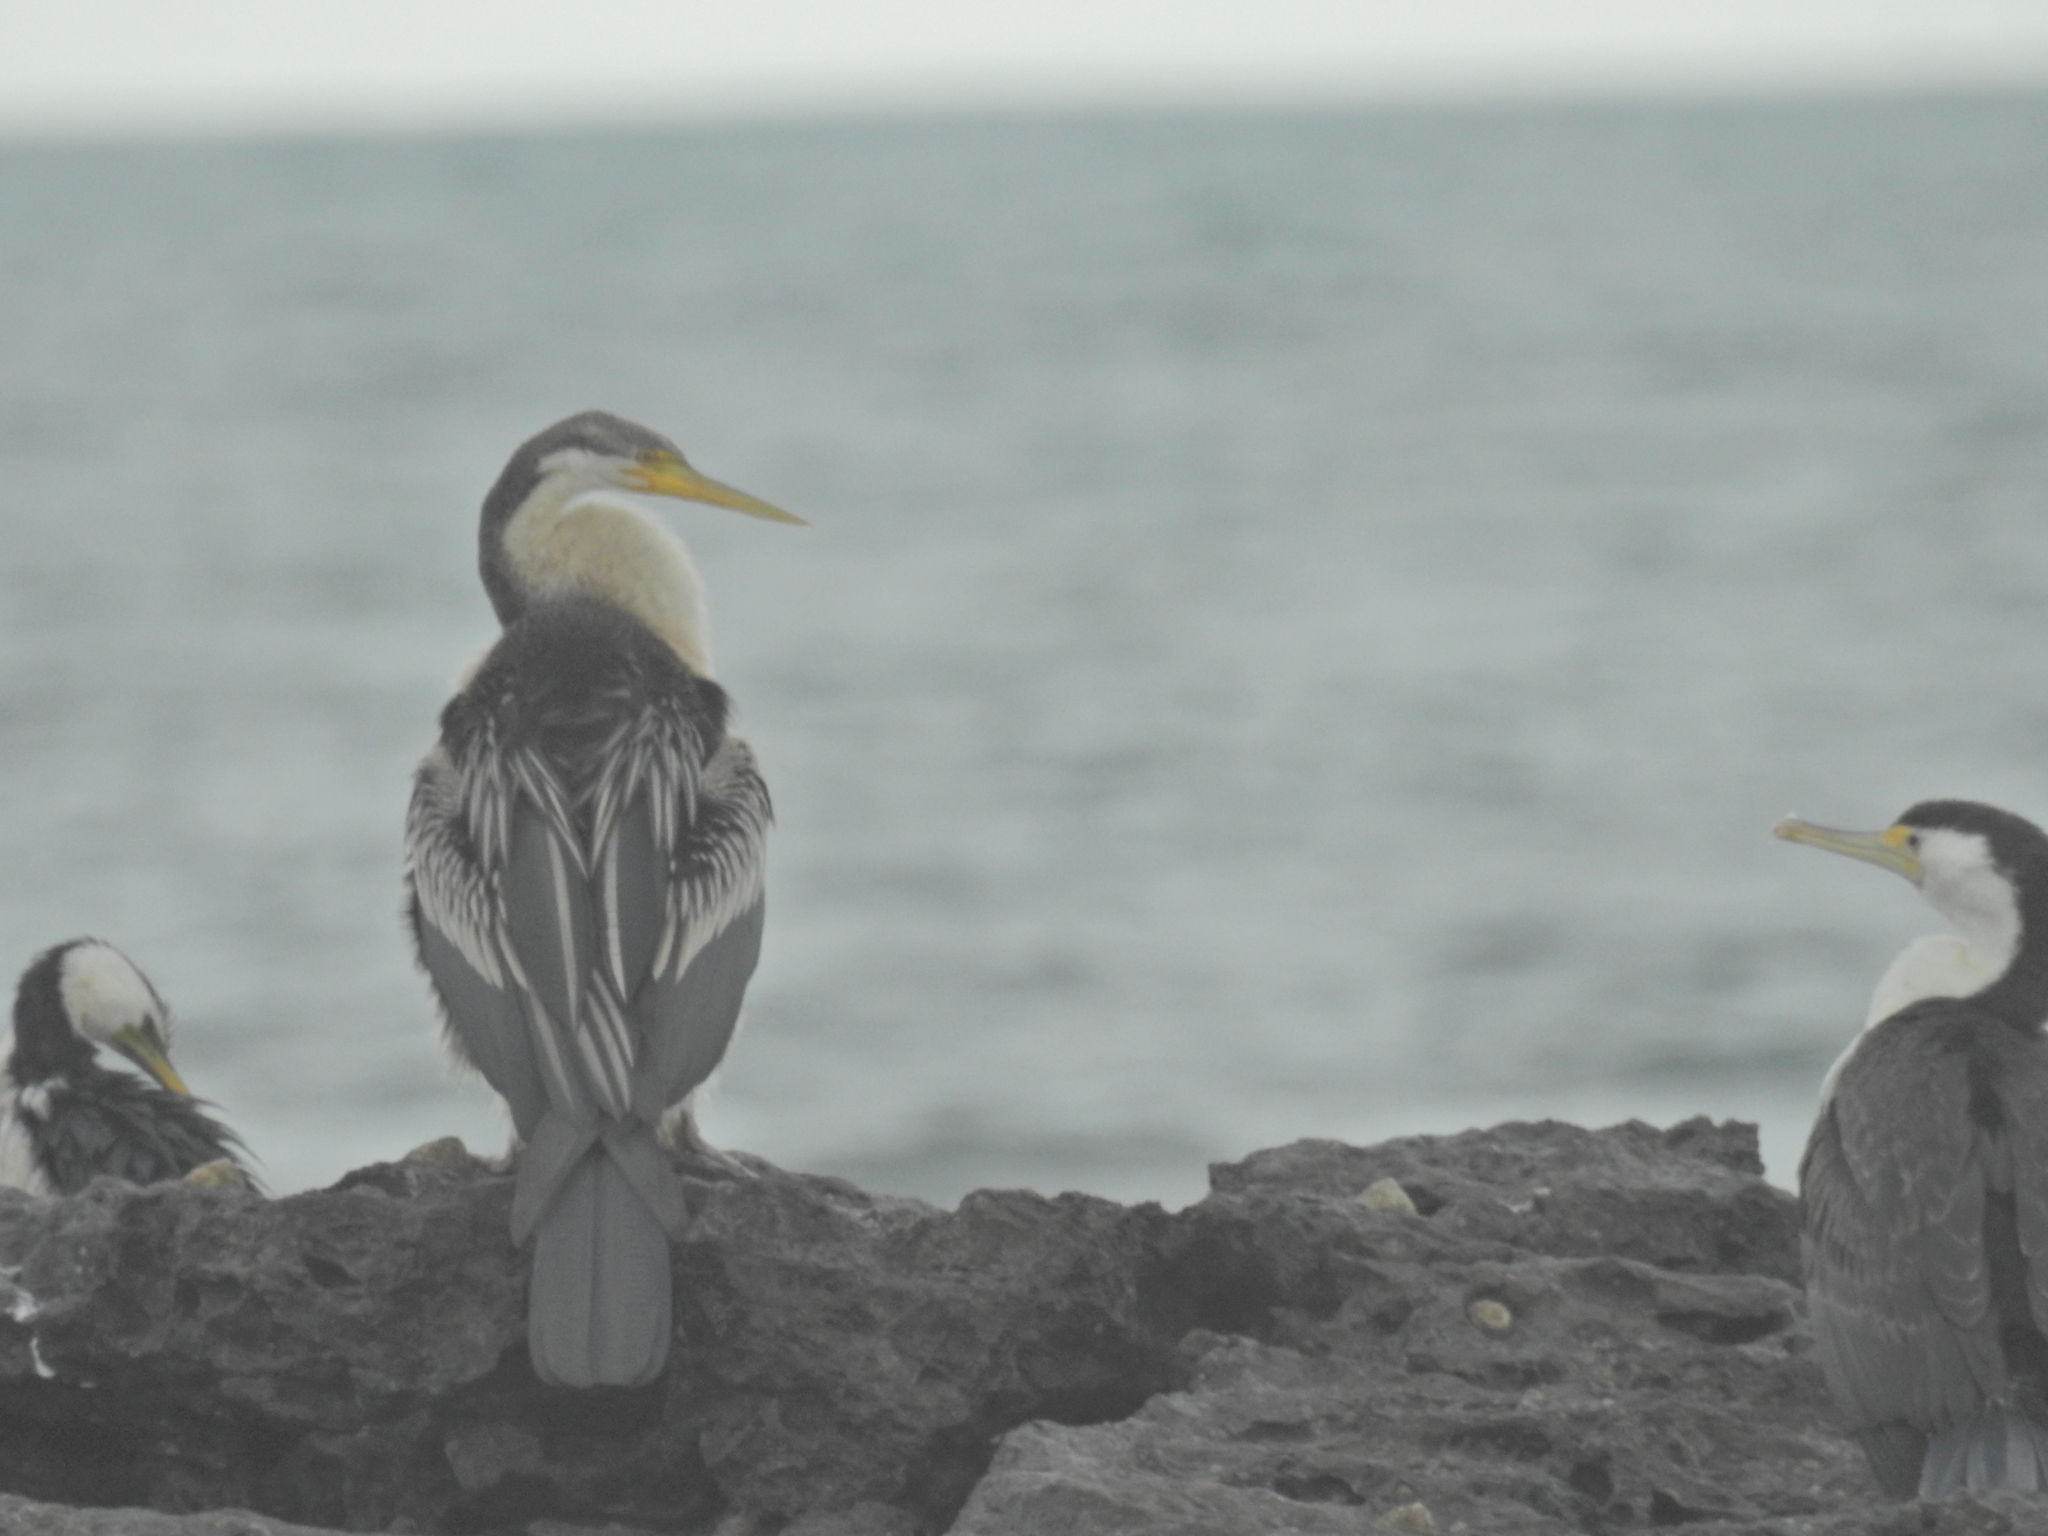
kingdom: Animalia
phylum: Chordata
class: Aves
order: Suliformes
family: Anhingidae
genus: Anhinga
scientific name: Anhinga novaehollandiae
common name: Australasian darter
